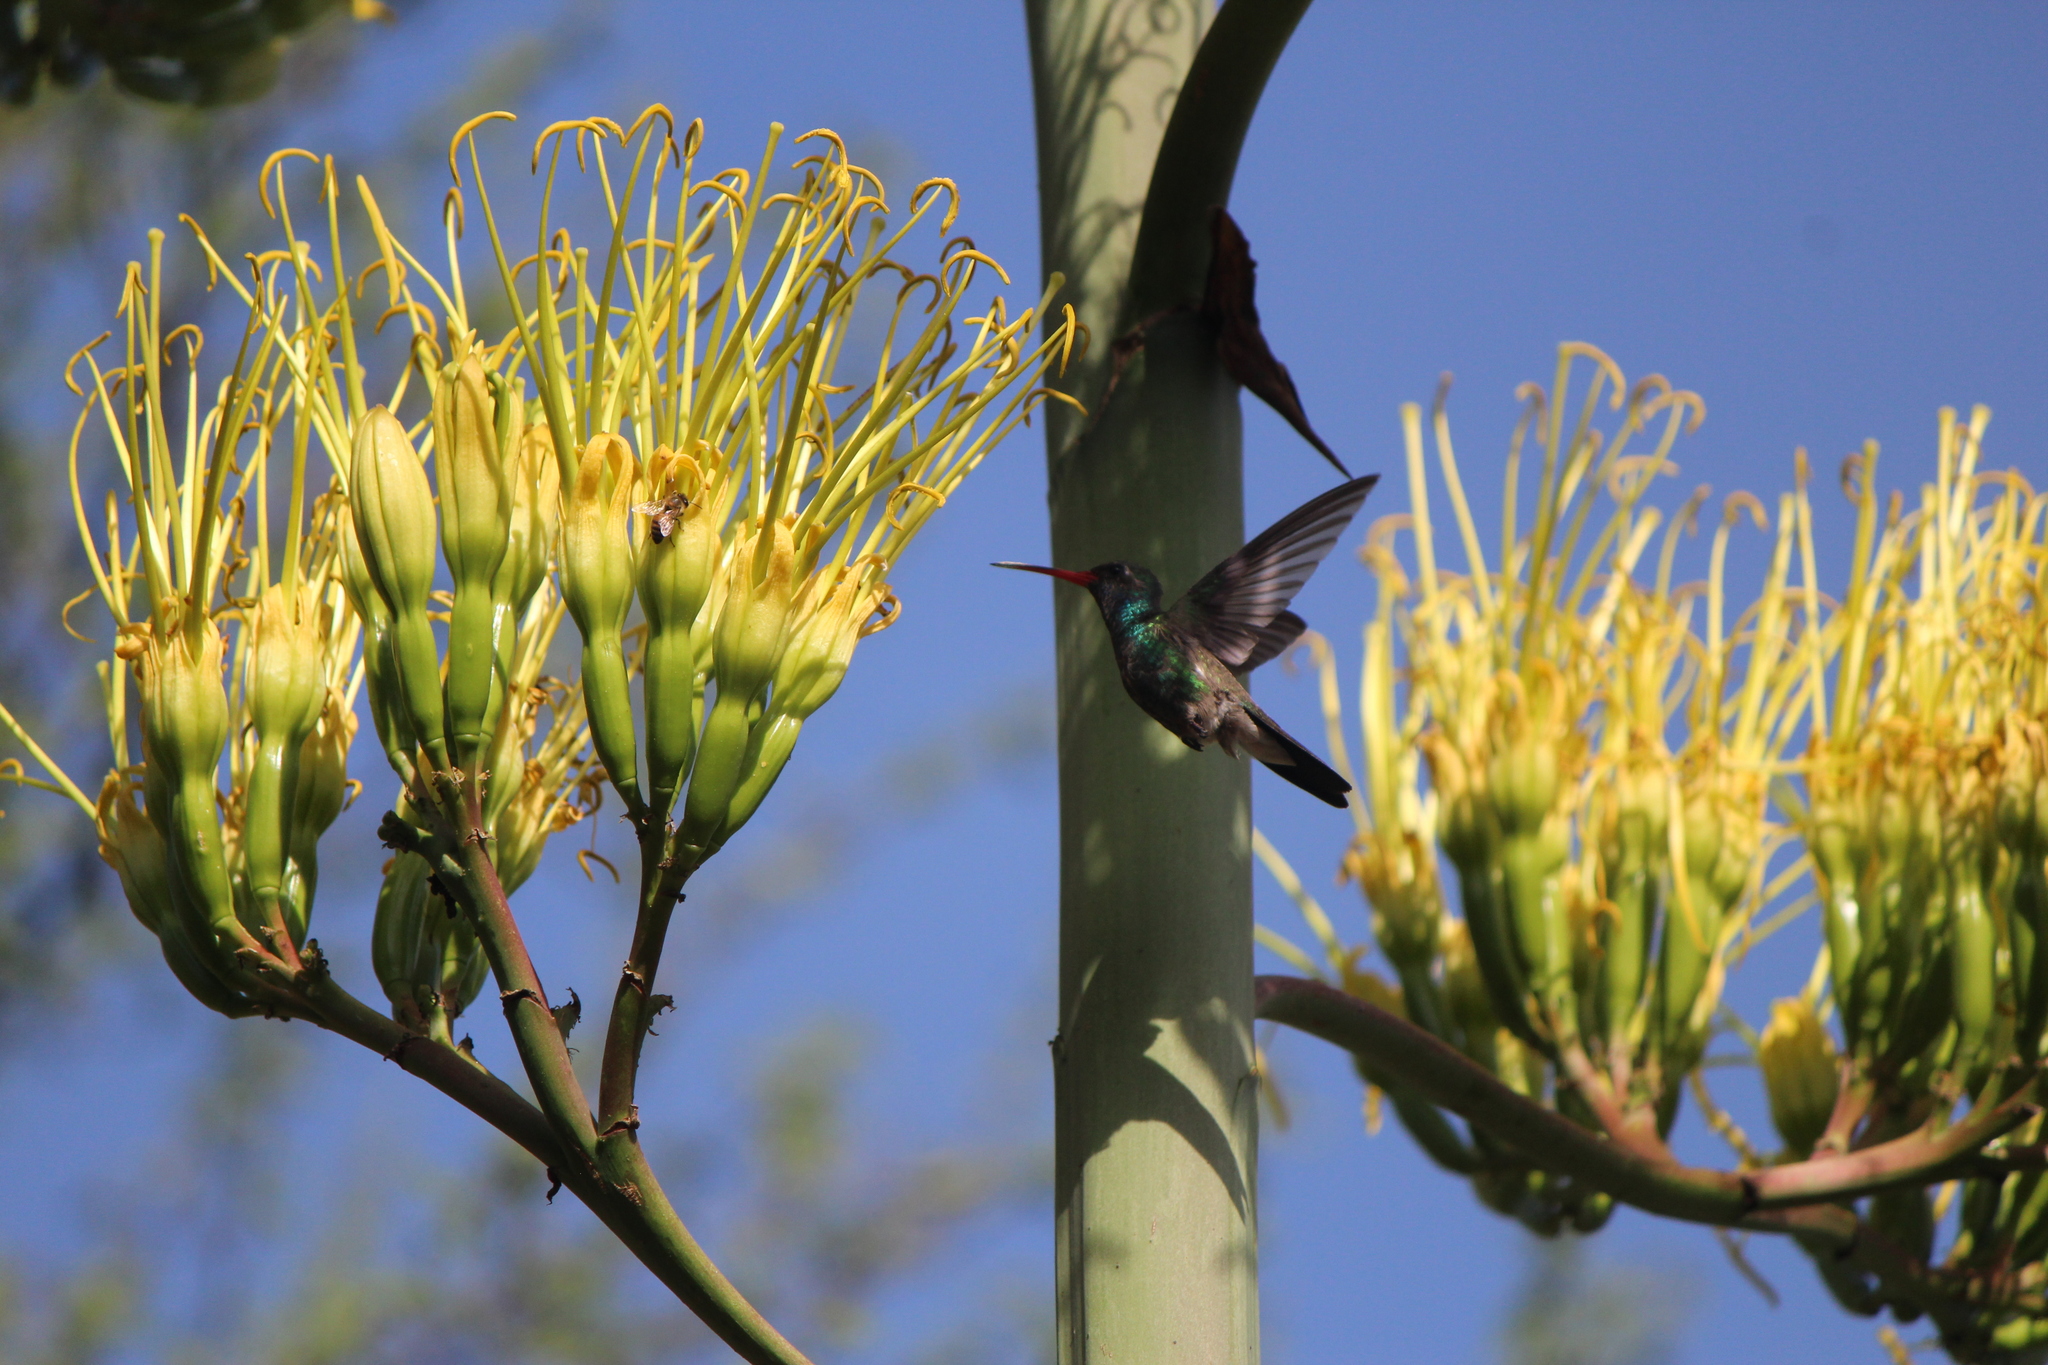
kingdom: Animalia
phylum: Chordata
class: Aves
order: Apodiformes
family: Trochilidae
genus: Cynanthus
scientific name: Cynanthus latirostris
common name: Broad-billed hummingbird
